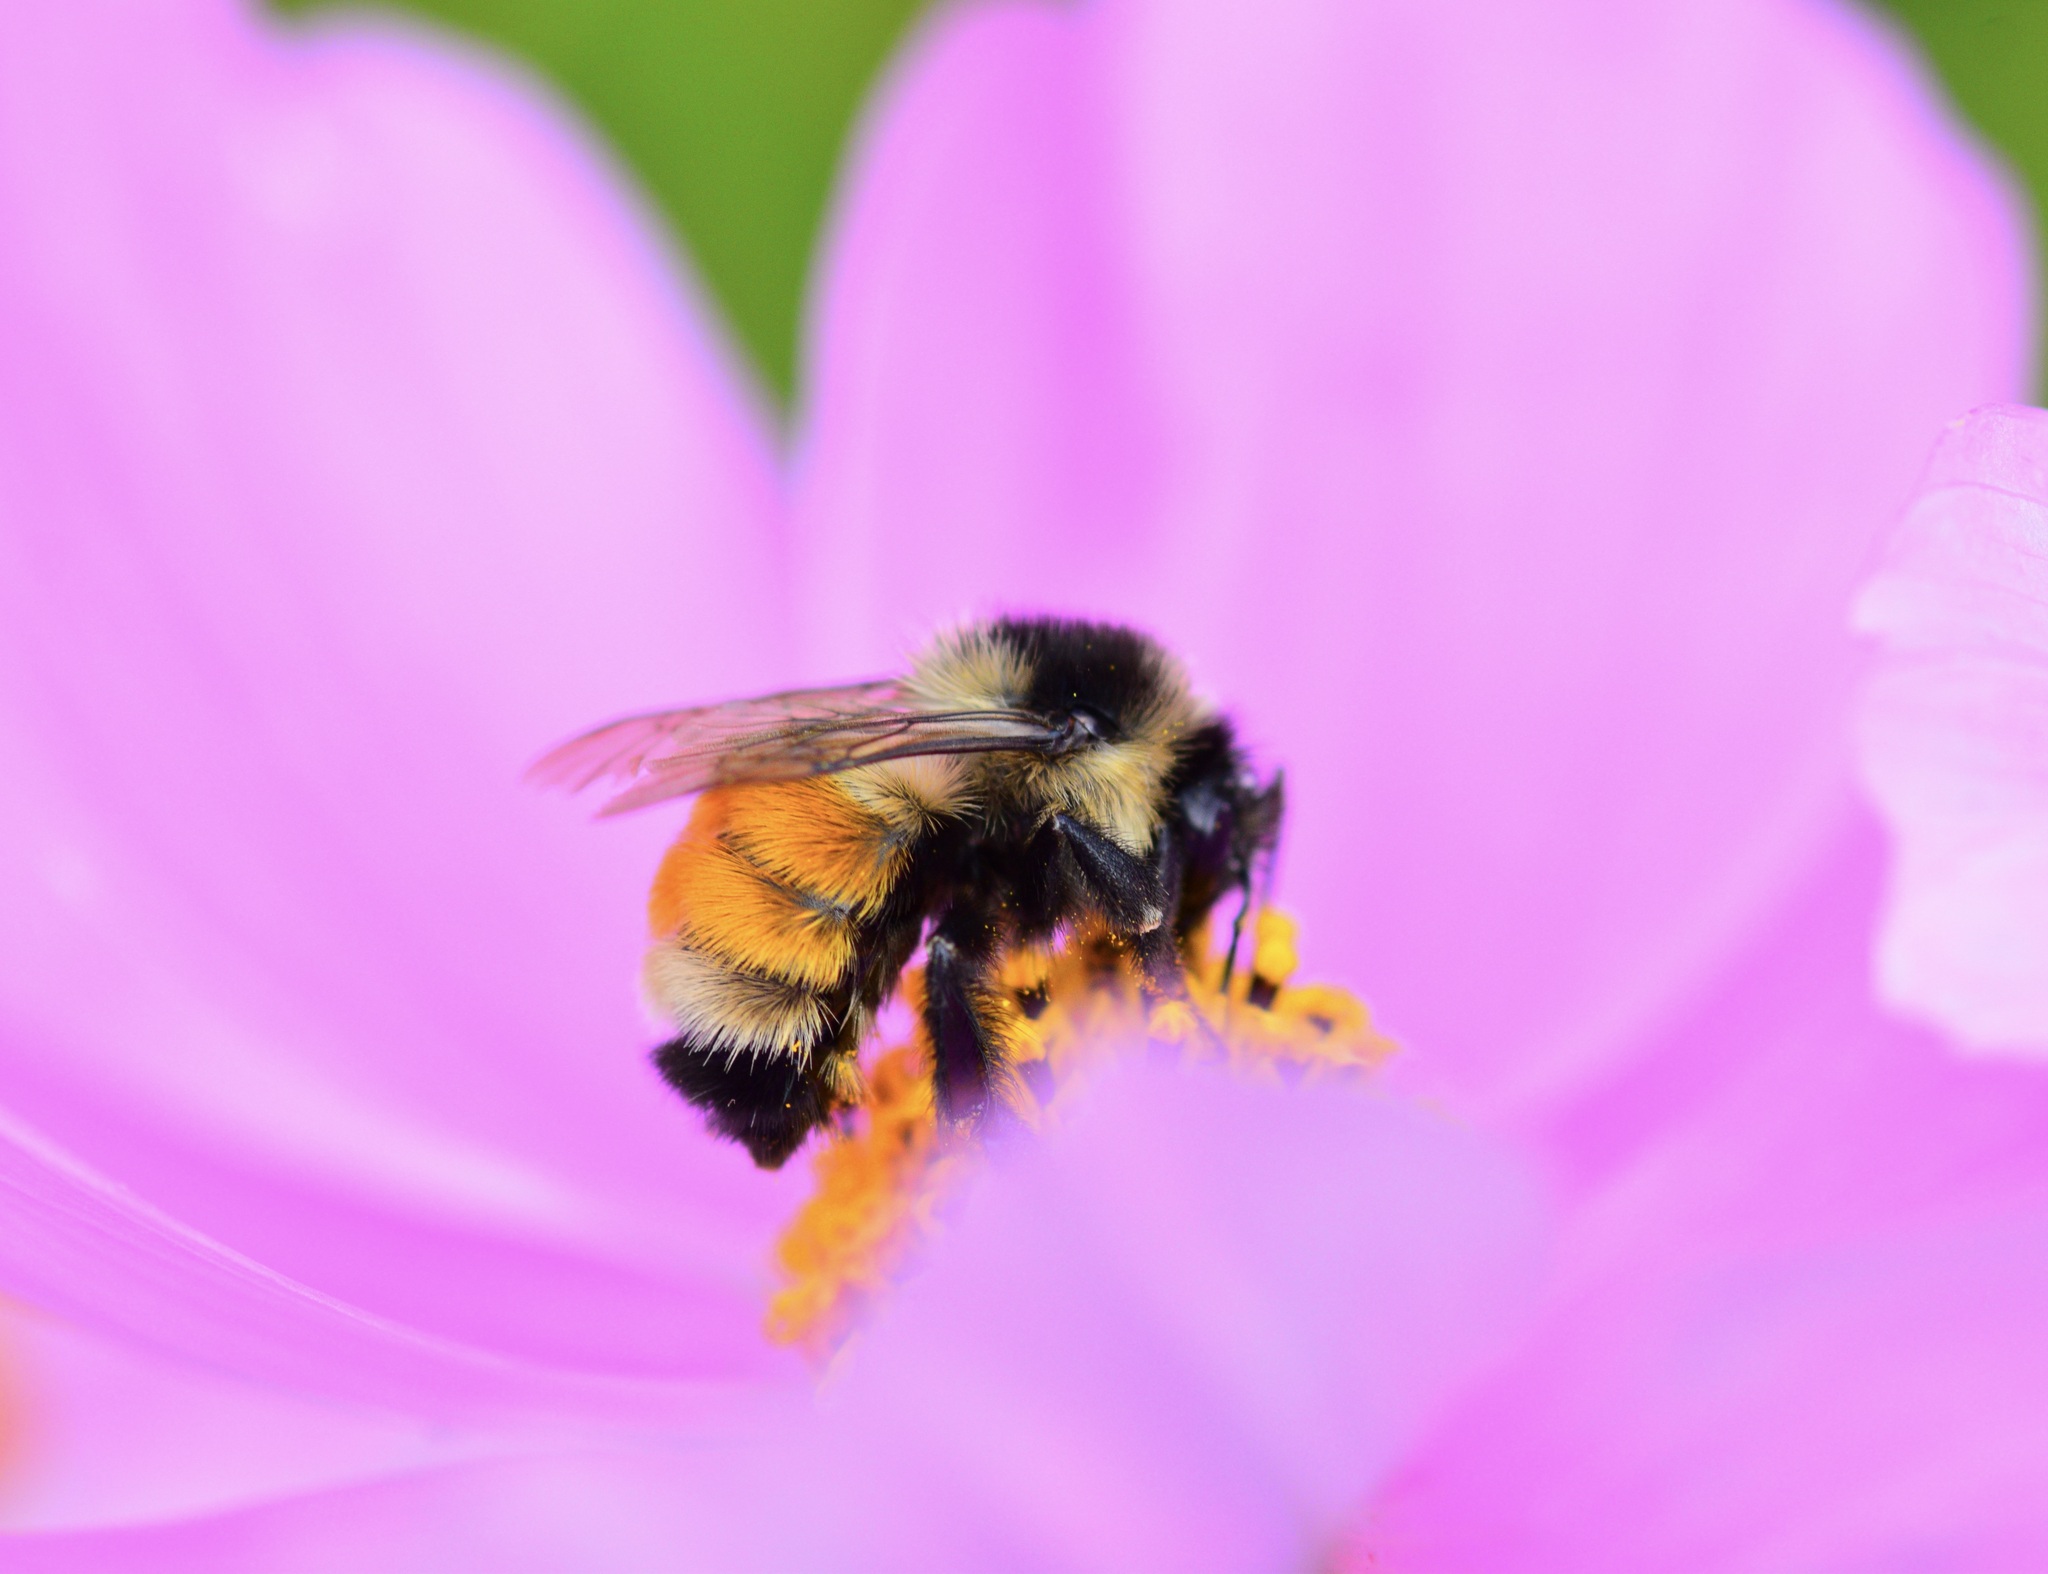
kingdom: Animalia
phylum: Arthropoda
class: Insecta
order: Hymenoptera
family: Apidae
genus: Bombus
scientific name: Bombus ternarius
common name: Tri-colored bumble bee
